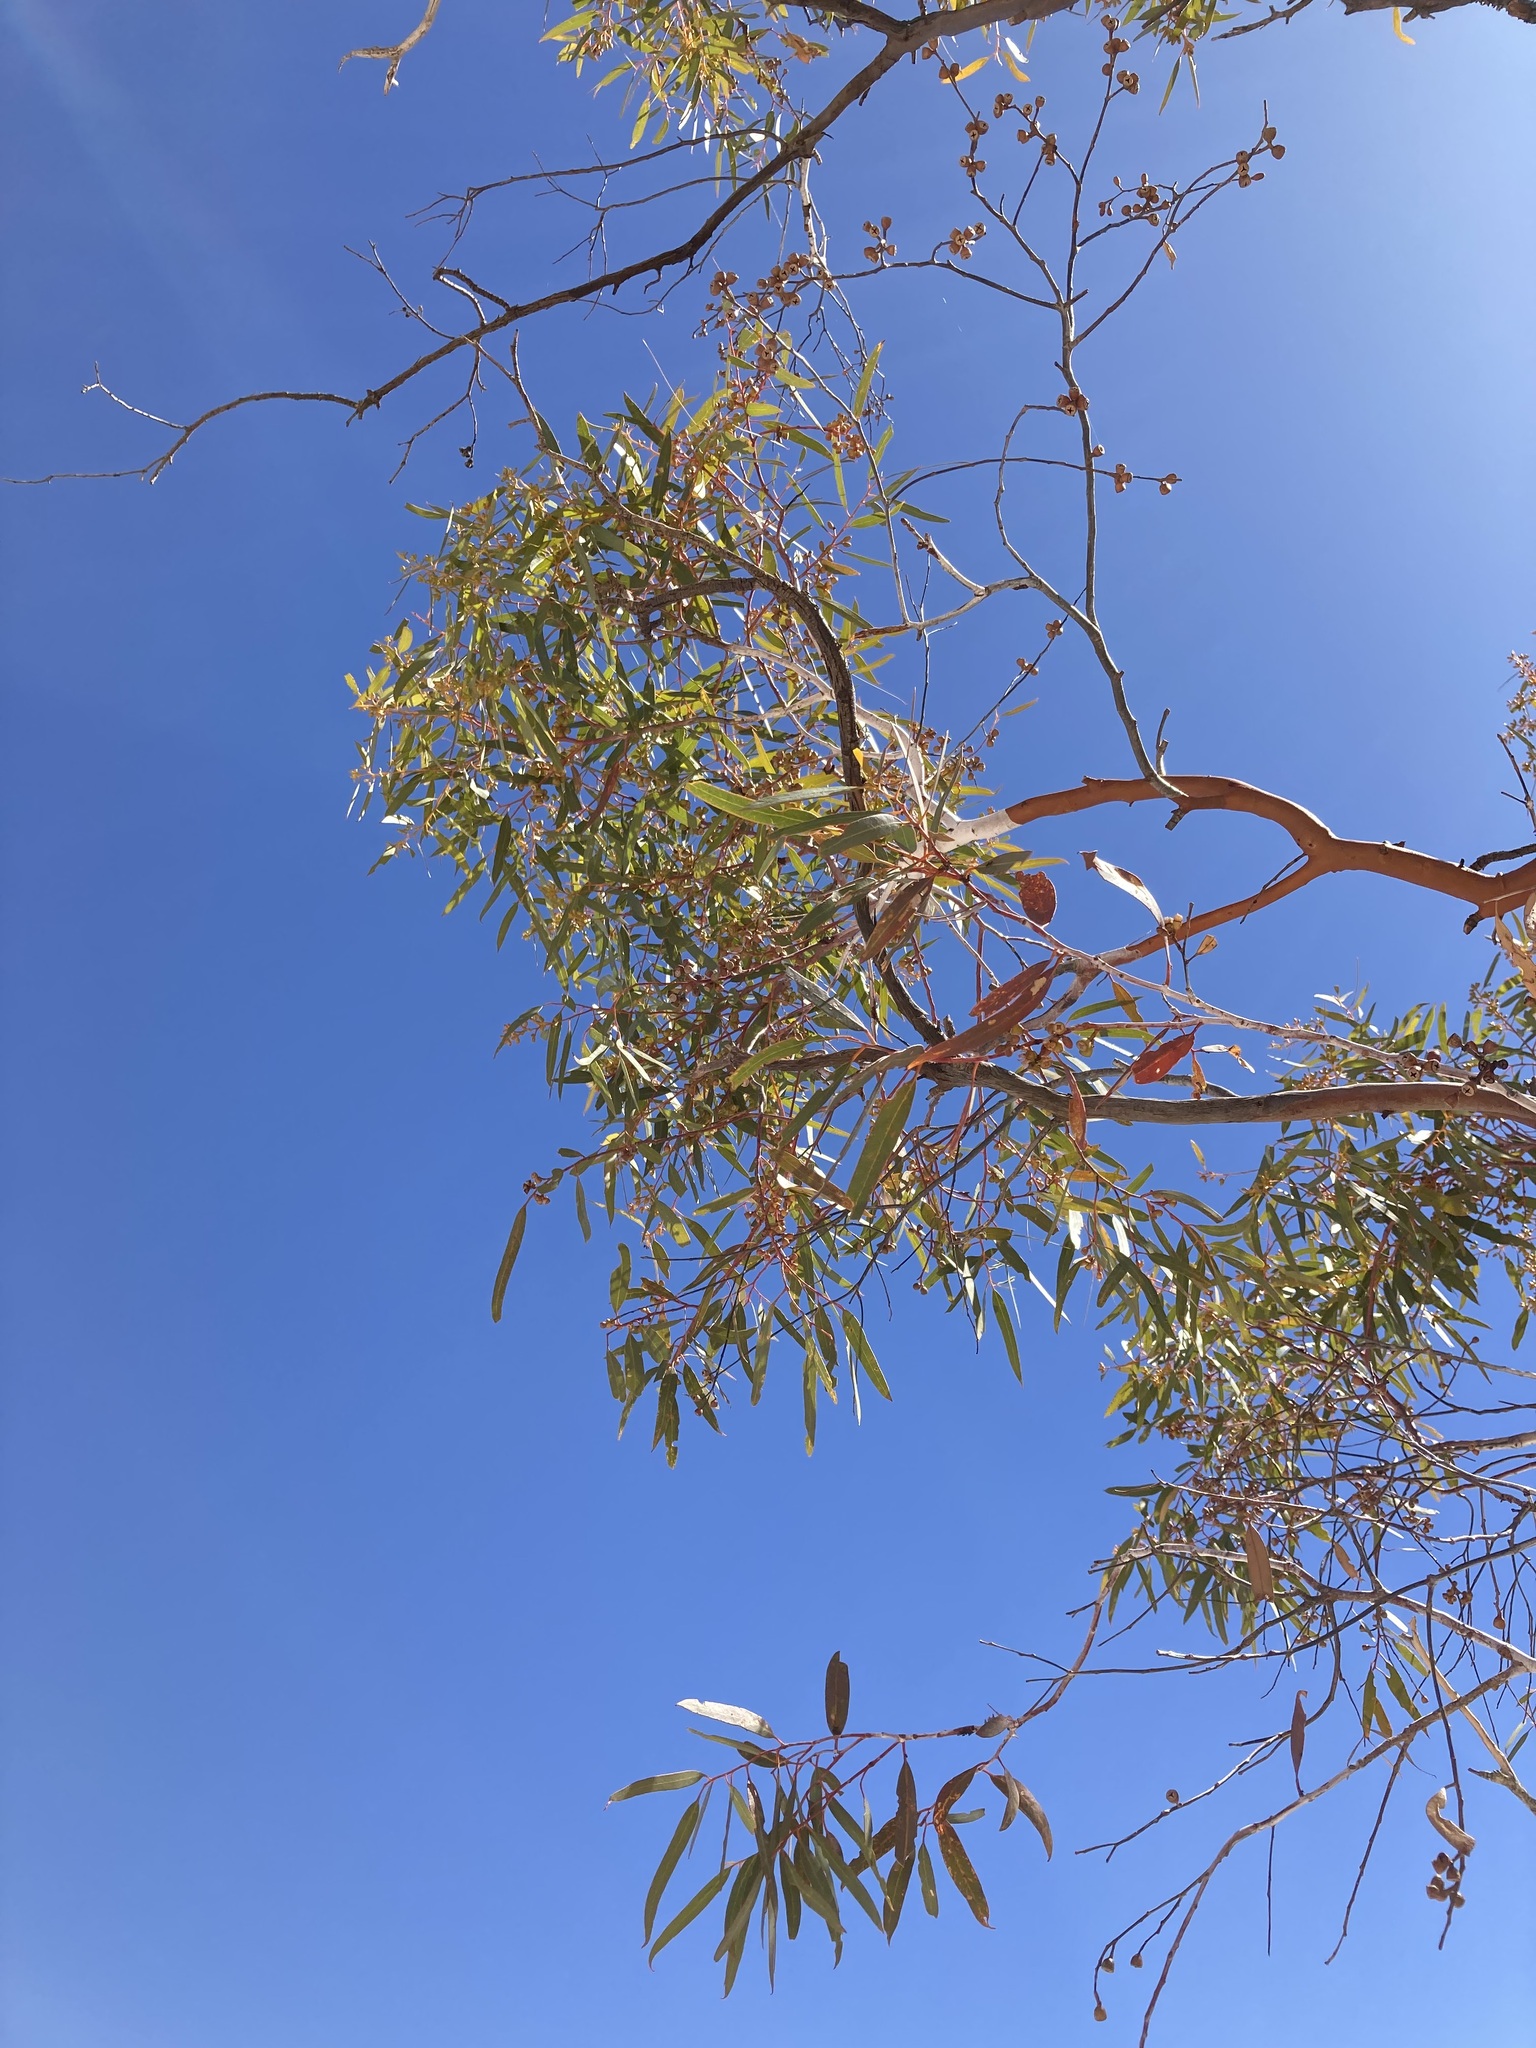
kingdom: Plantae
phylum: Tracheophyta
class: Magnoliopsida
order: Myrtales
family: Myrtaceae
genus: Eucalyptus
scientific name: Eucalyptus effusa
